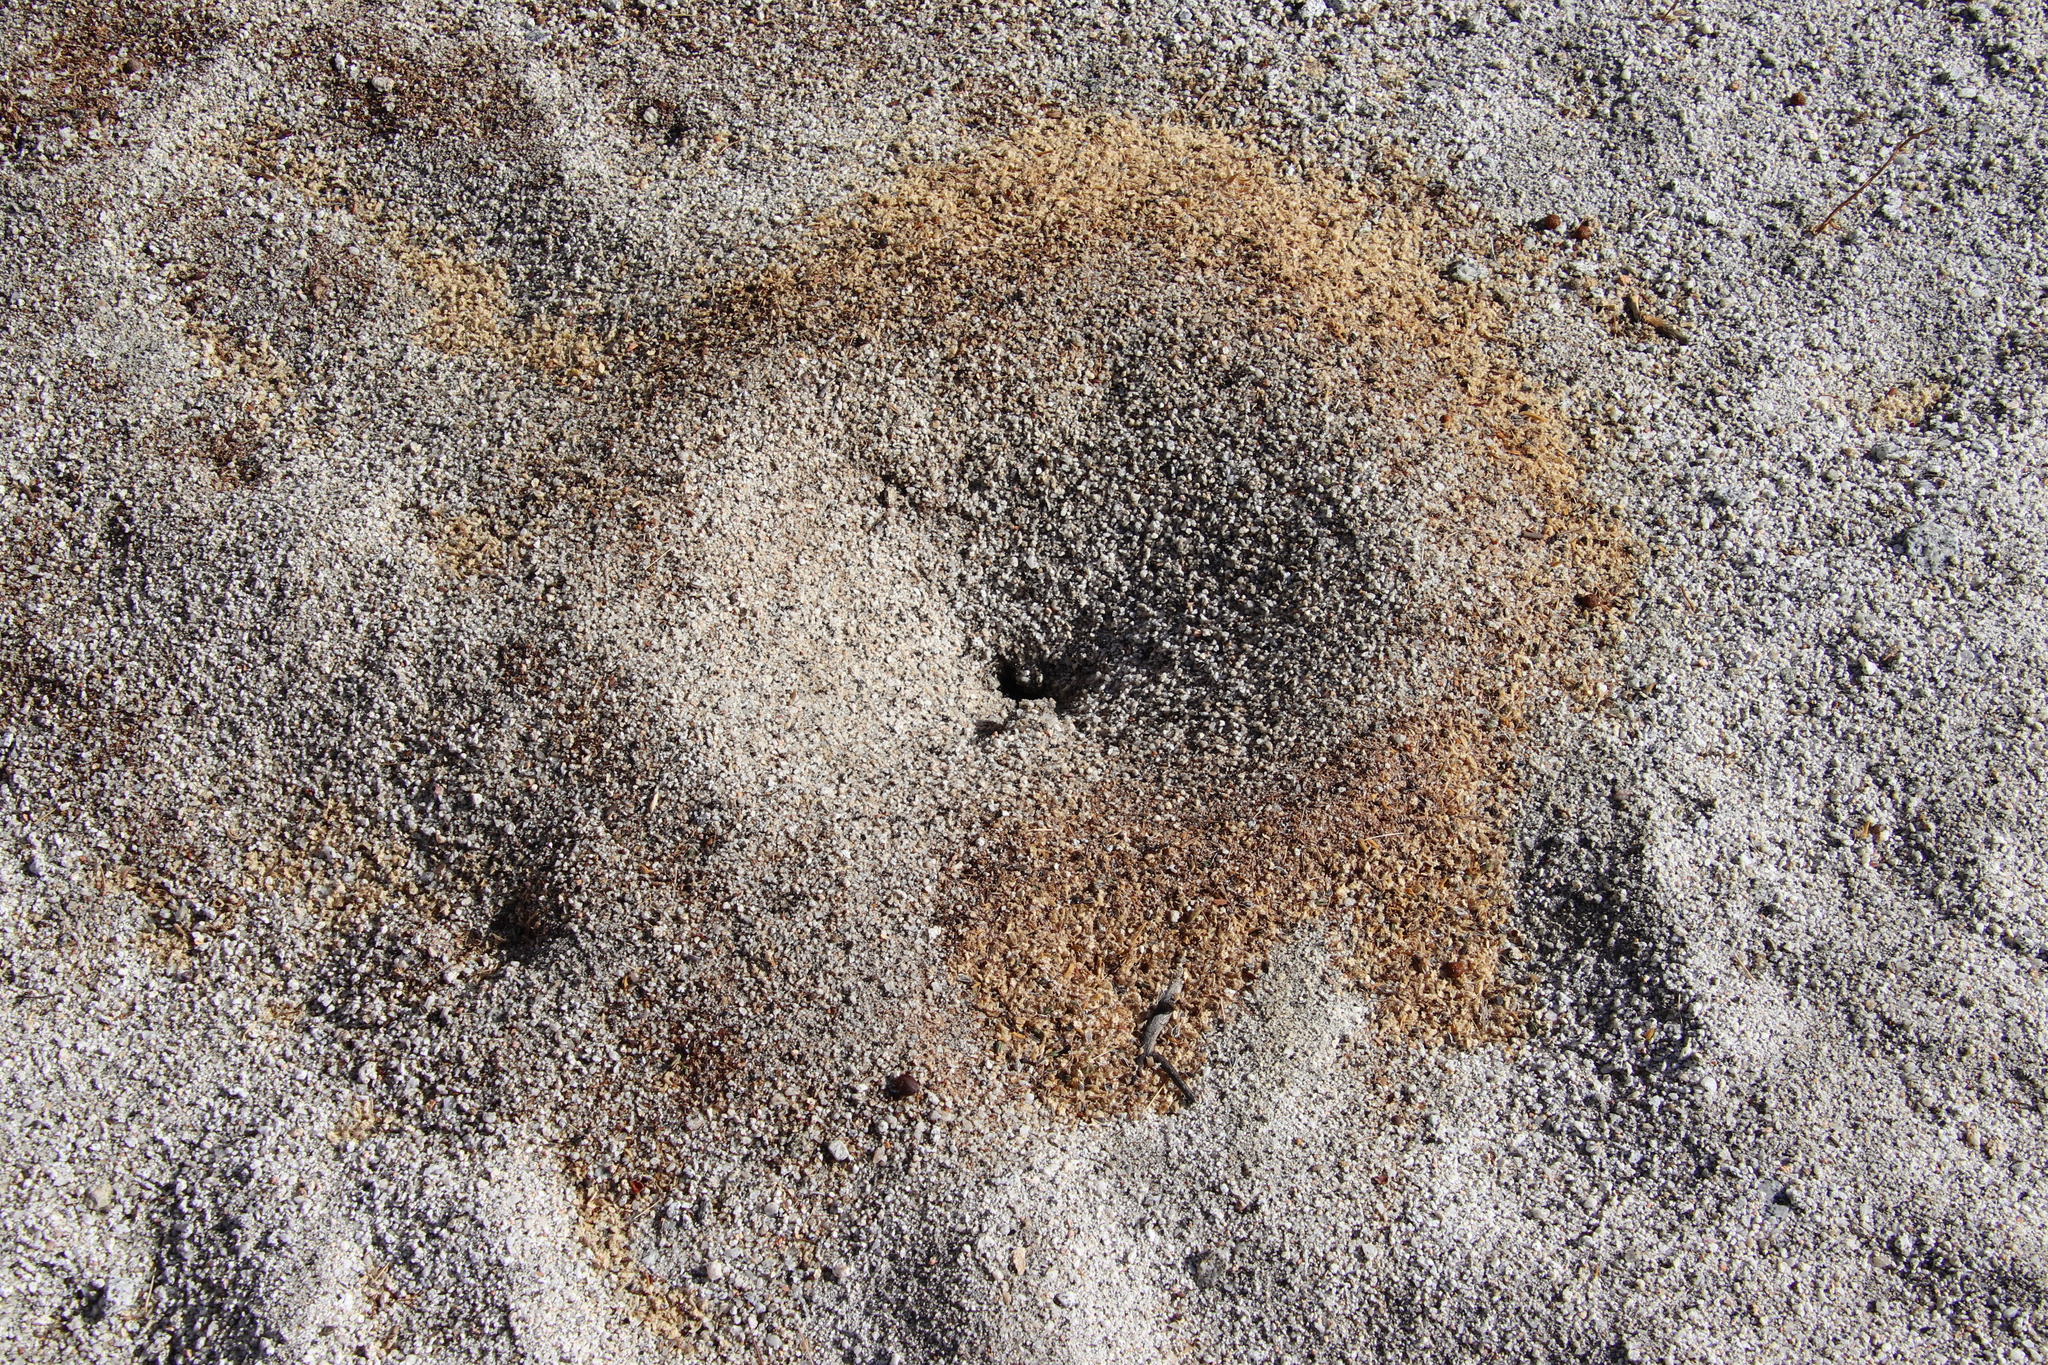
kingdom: Animalia
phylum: Arthropoda
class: Insecta
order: Hymenoptera
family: Formicidae
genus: Messor
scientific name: Messor pergandei
